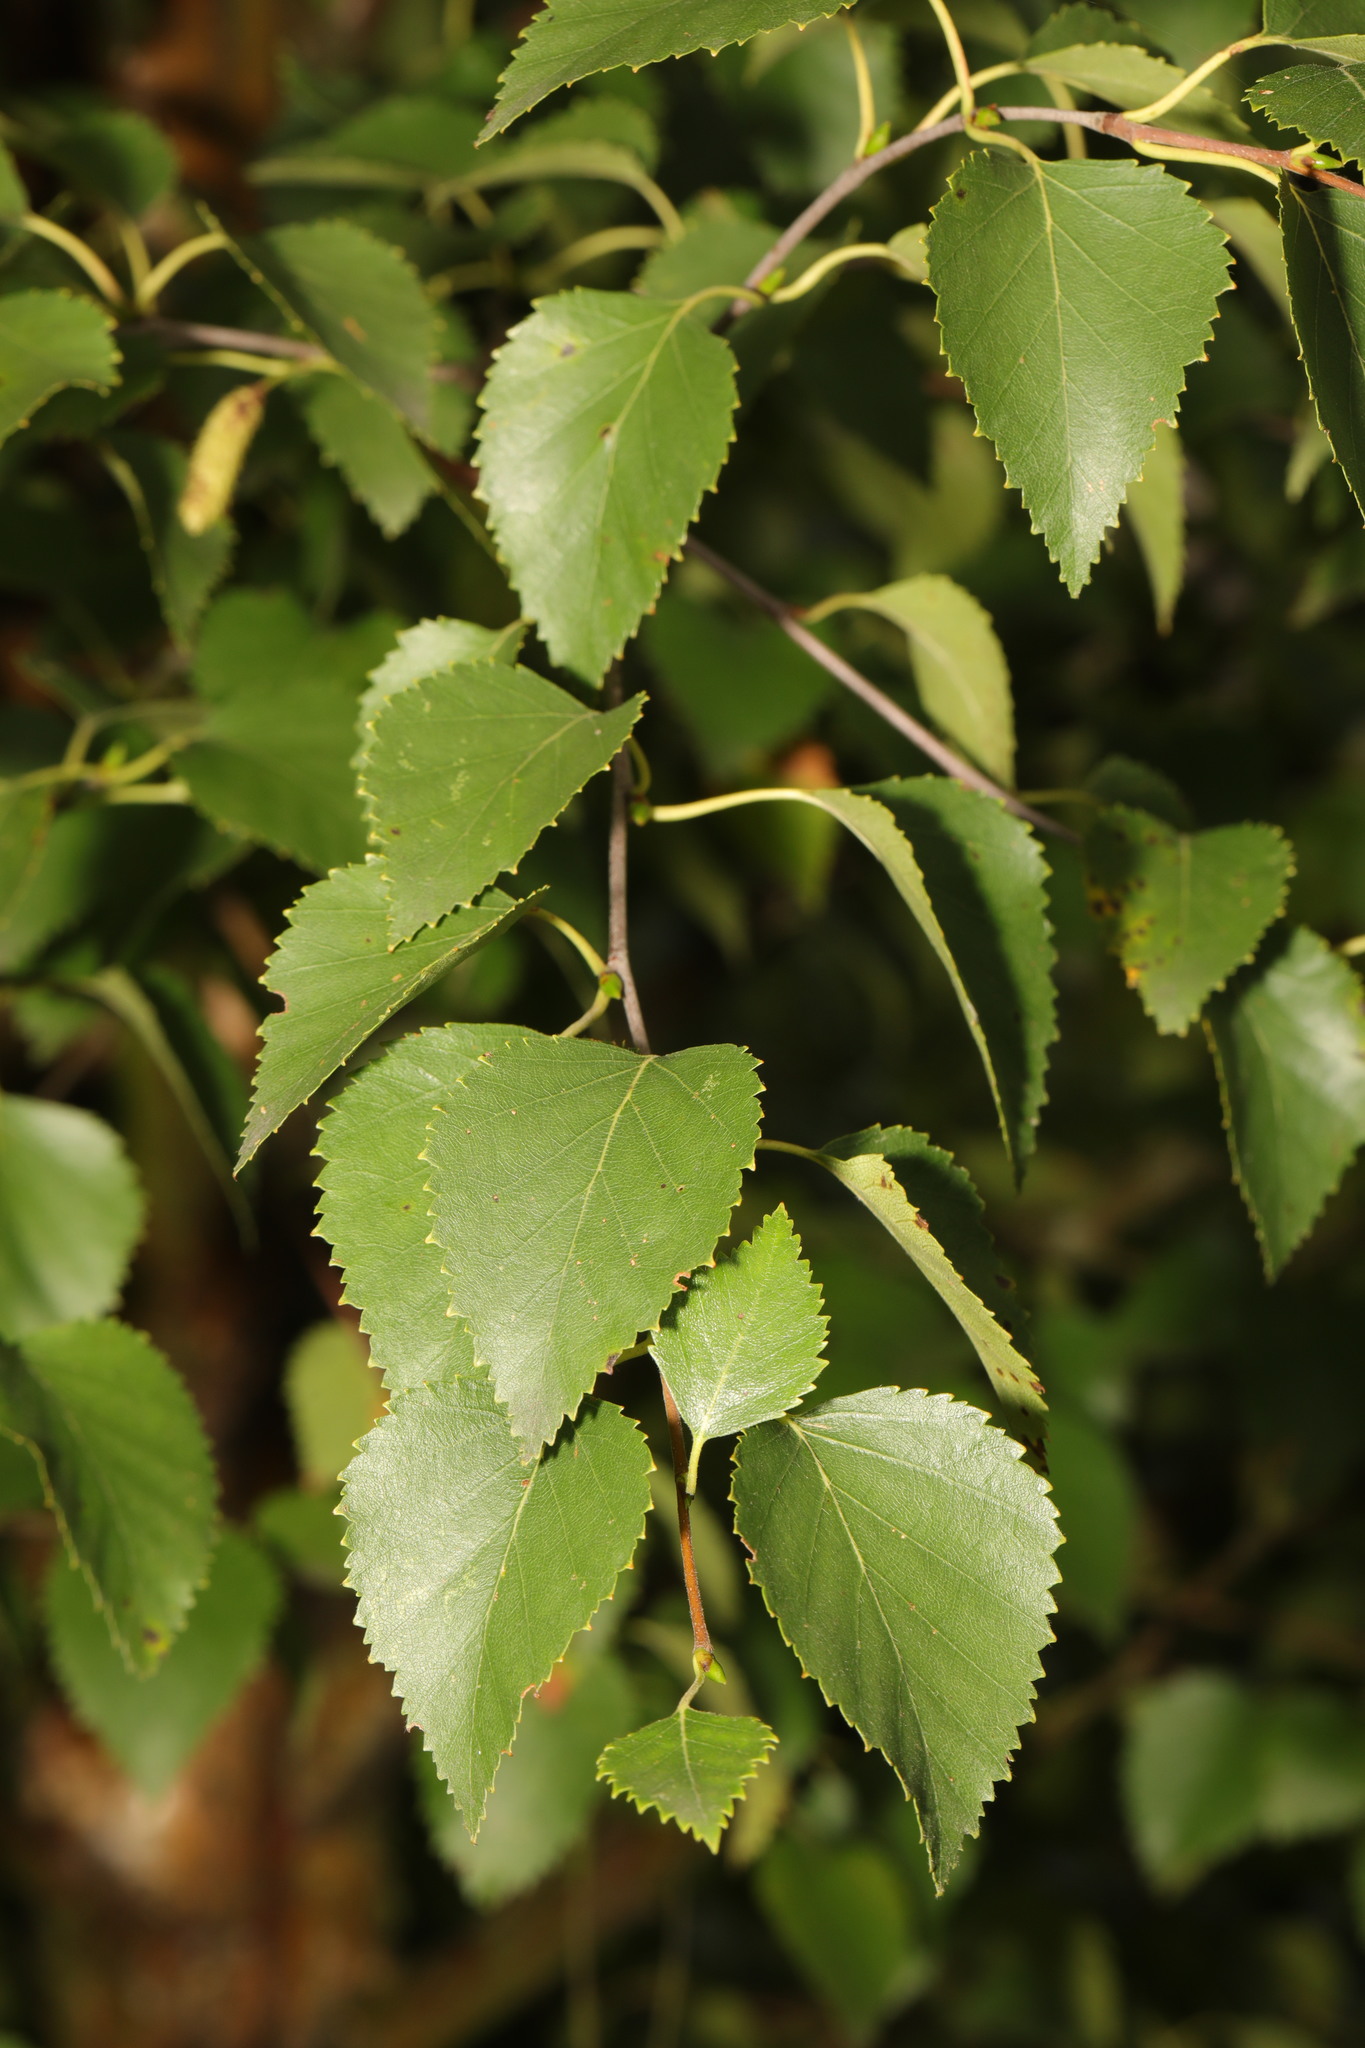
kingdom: Plantae
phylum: Tracheophyta
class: Magnoliopsida
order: Fagales
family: Betulaceae
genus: Betula
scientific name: Betula pubescens
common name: Downy birch
